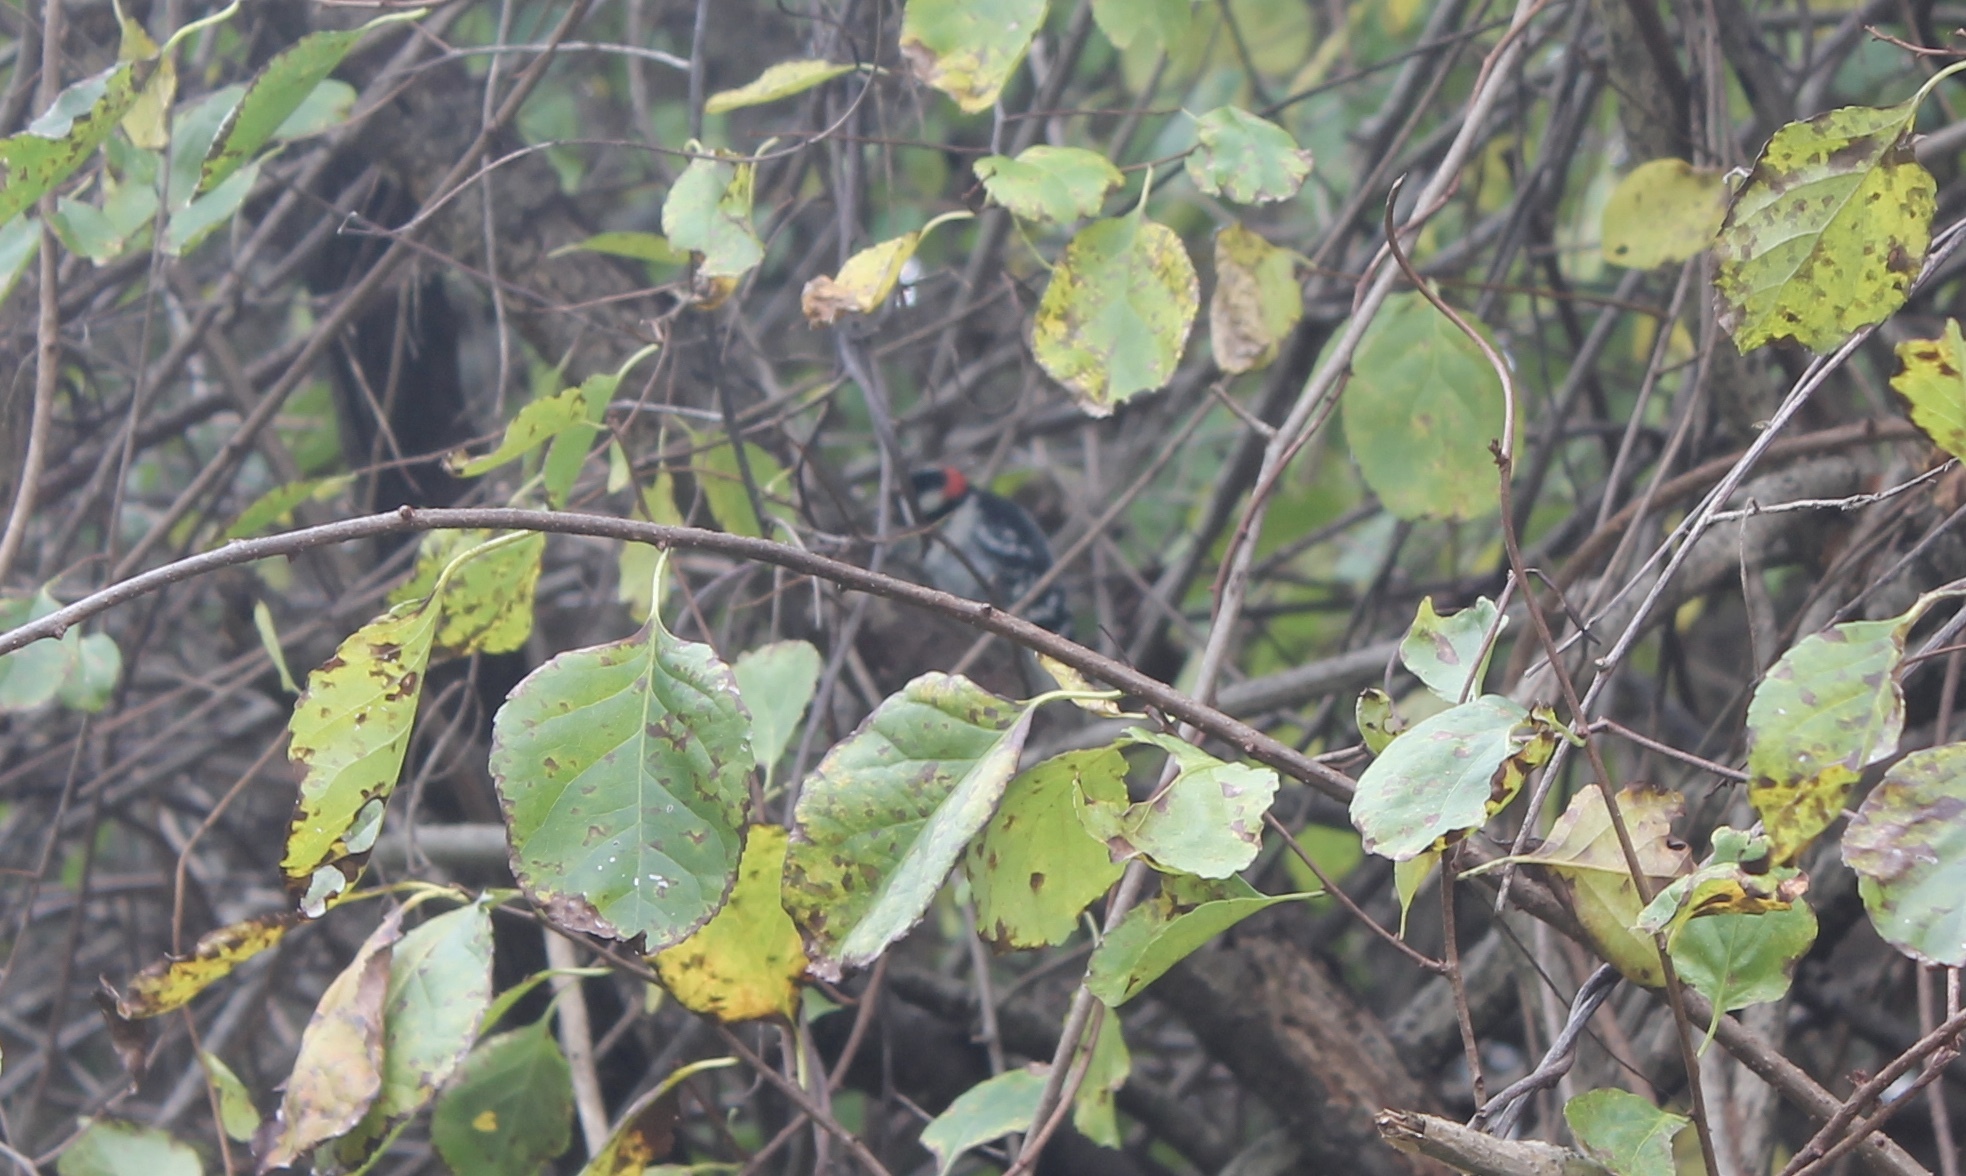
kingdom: Animalia
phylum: Chordata
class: Aves
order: Piciformes
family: Picidae
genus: Dryobates
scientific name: Dryobates pubescens
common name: Downy woodpecker
